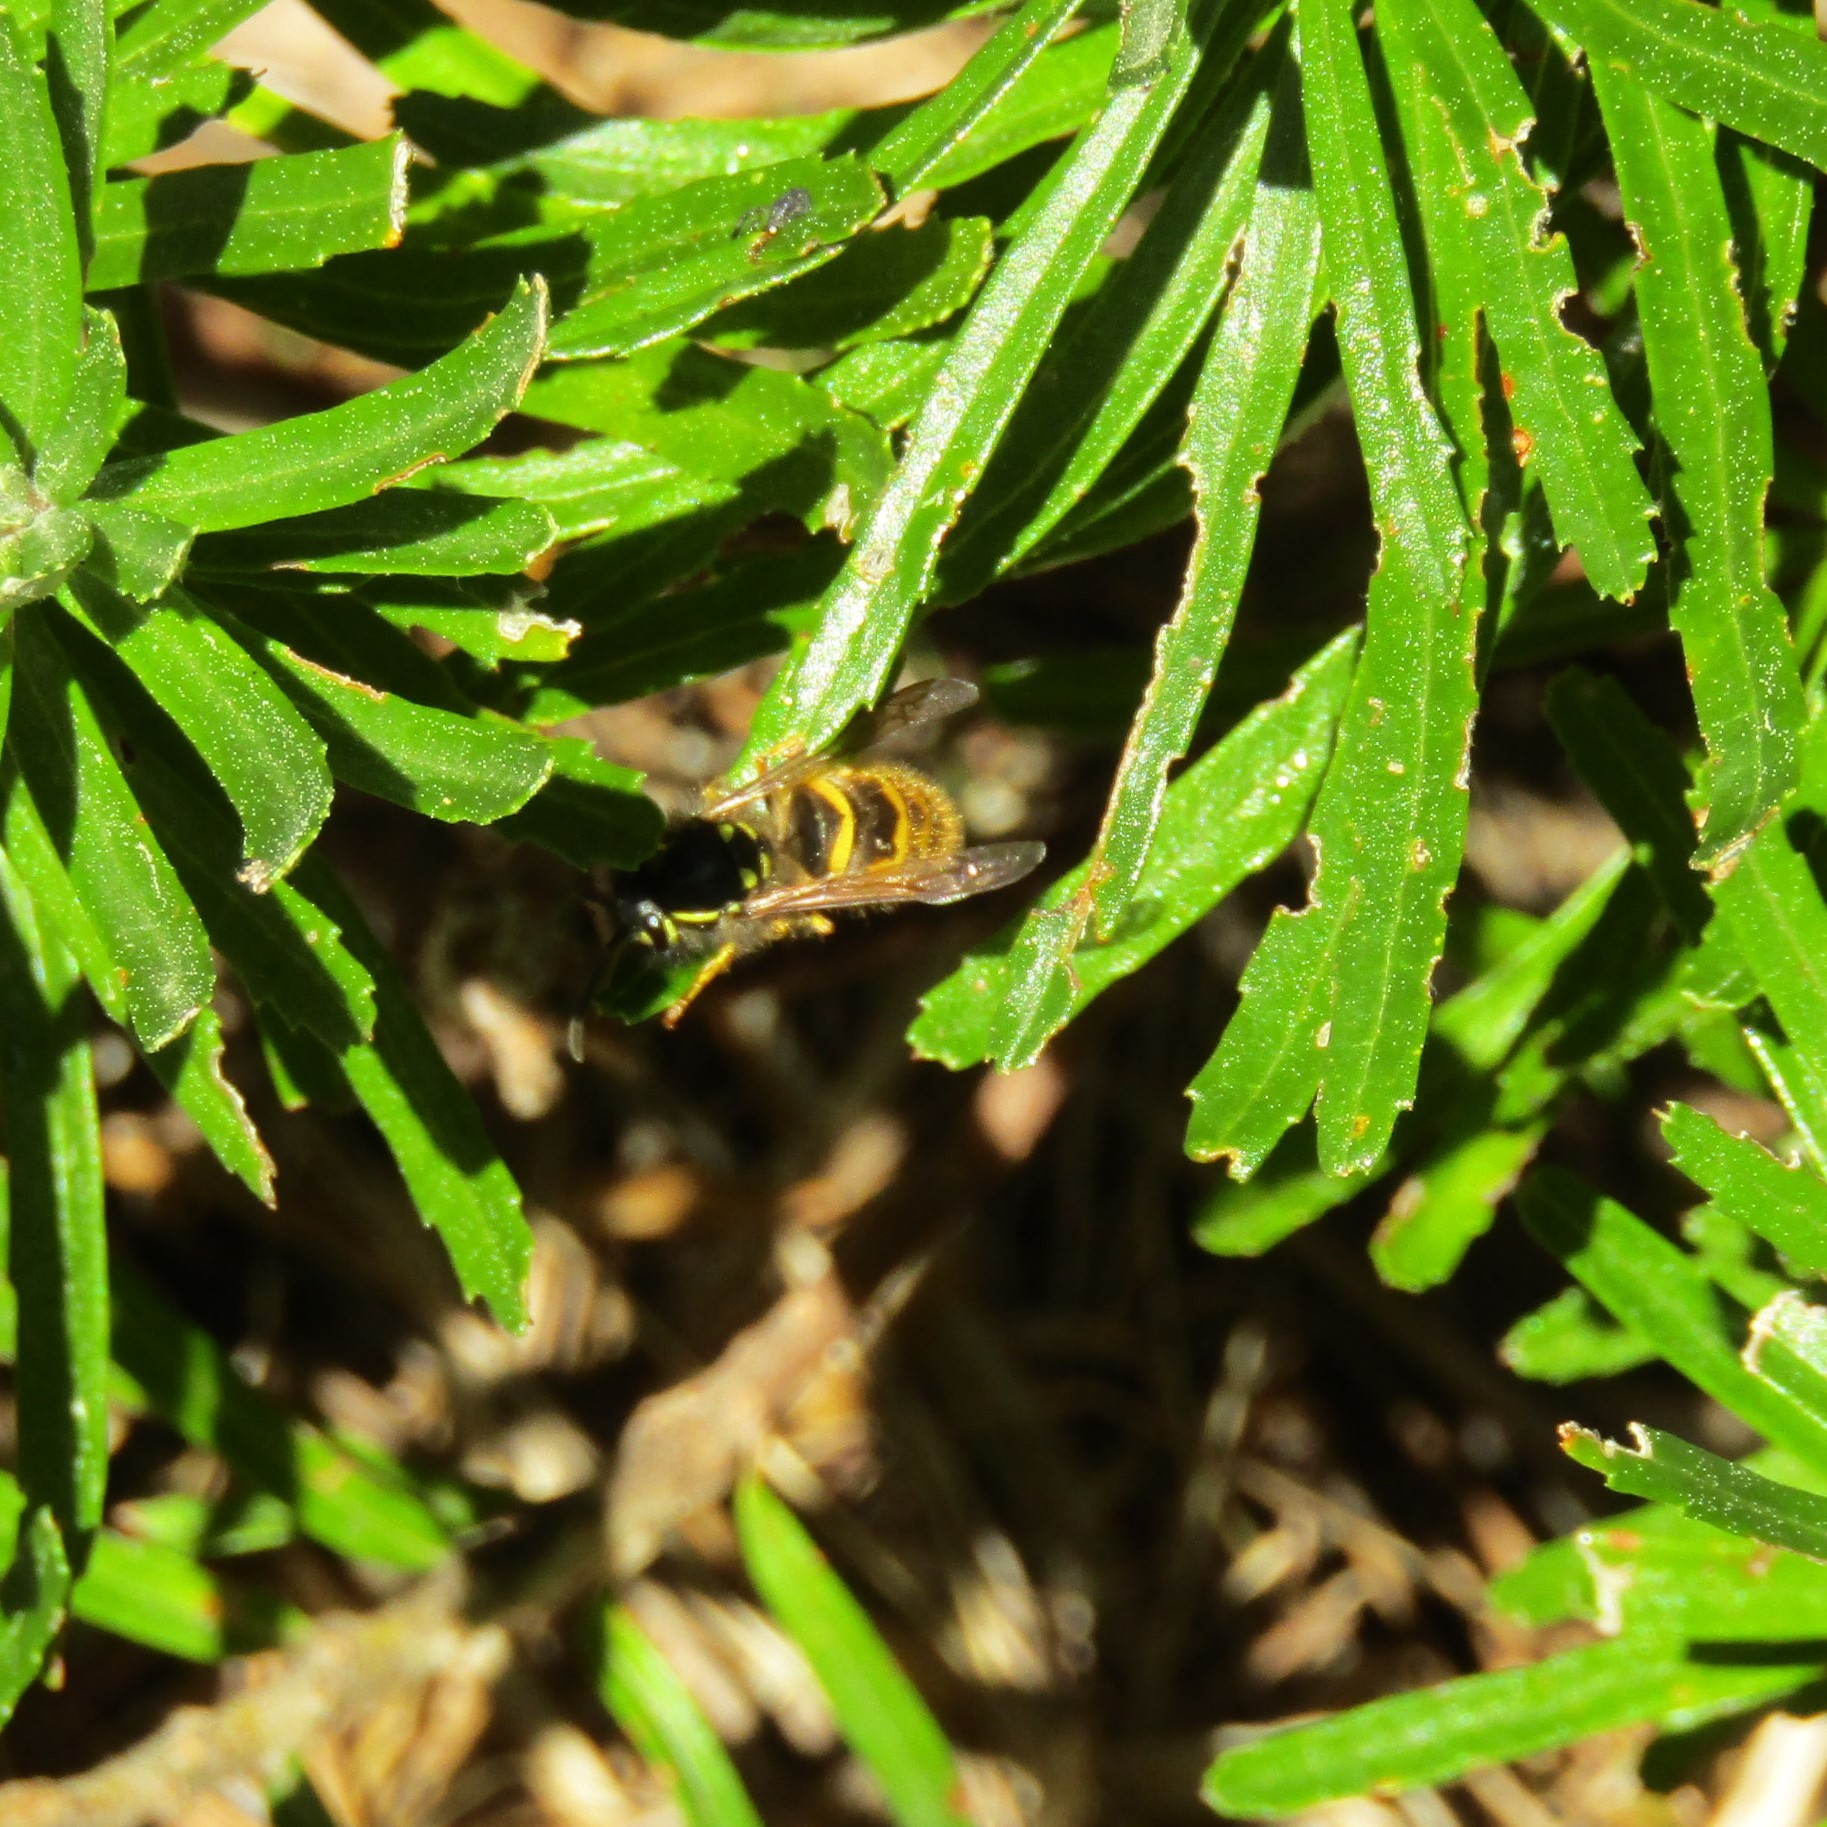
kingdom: Animalia
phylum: Arthropoda
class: Insecta
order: Hymenoptera
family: Vespidae
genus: Vespula
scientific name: Vespula vulgaris
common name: Common wasp
